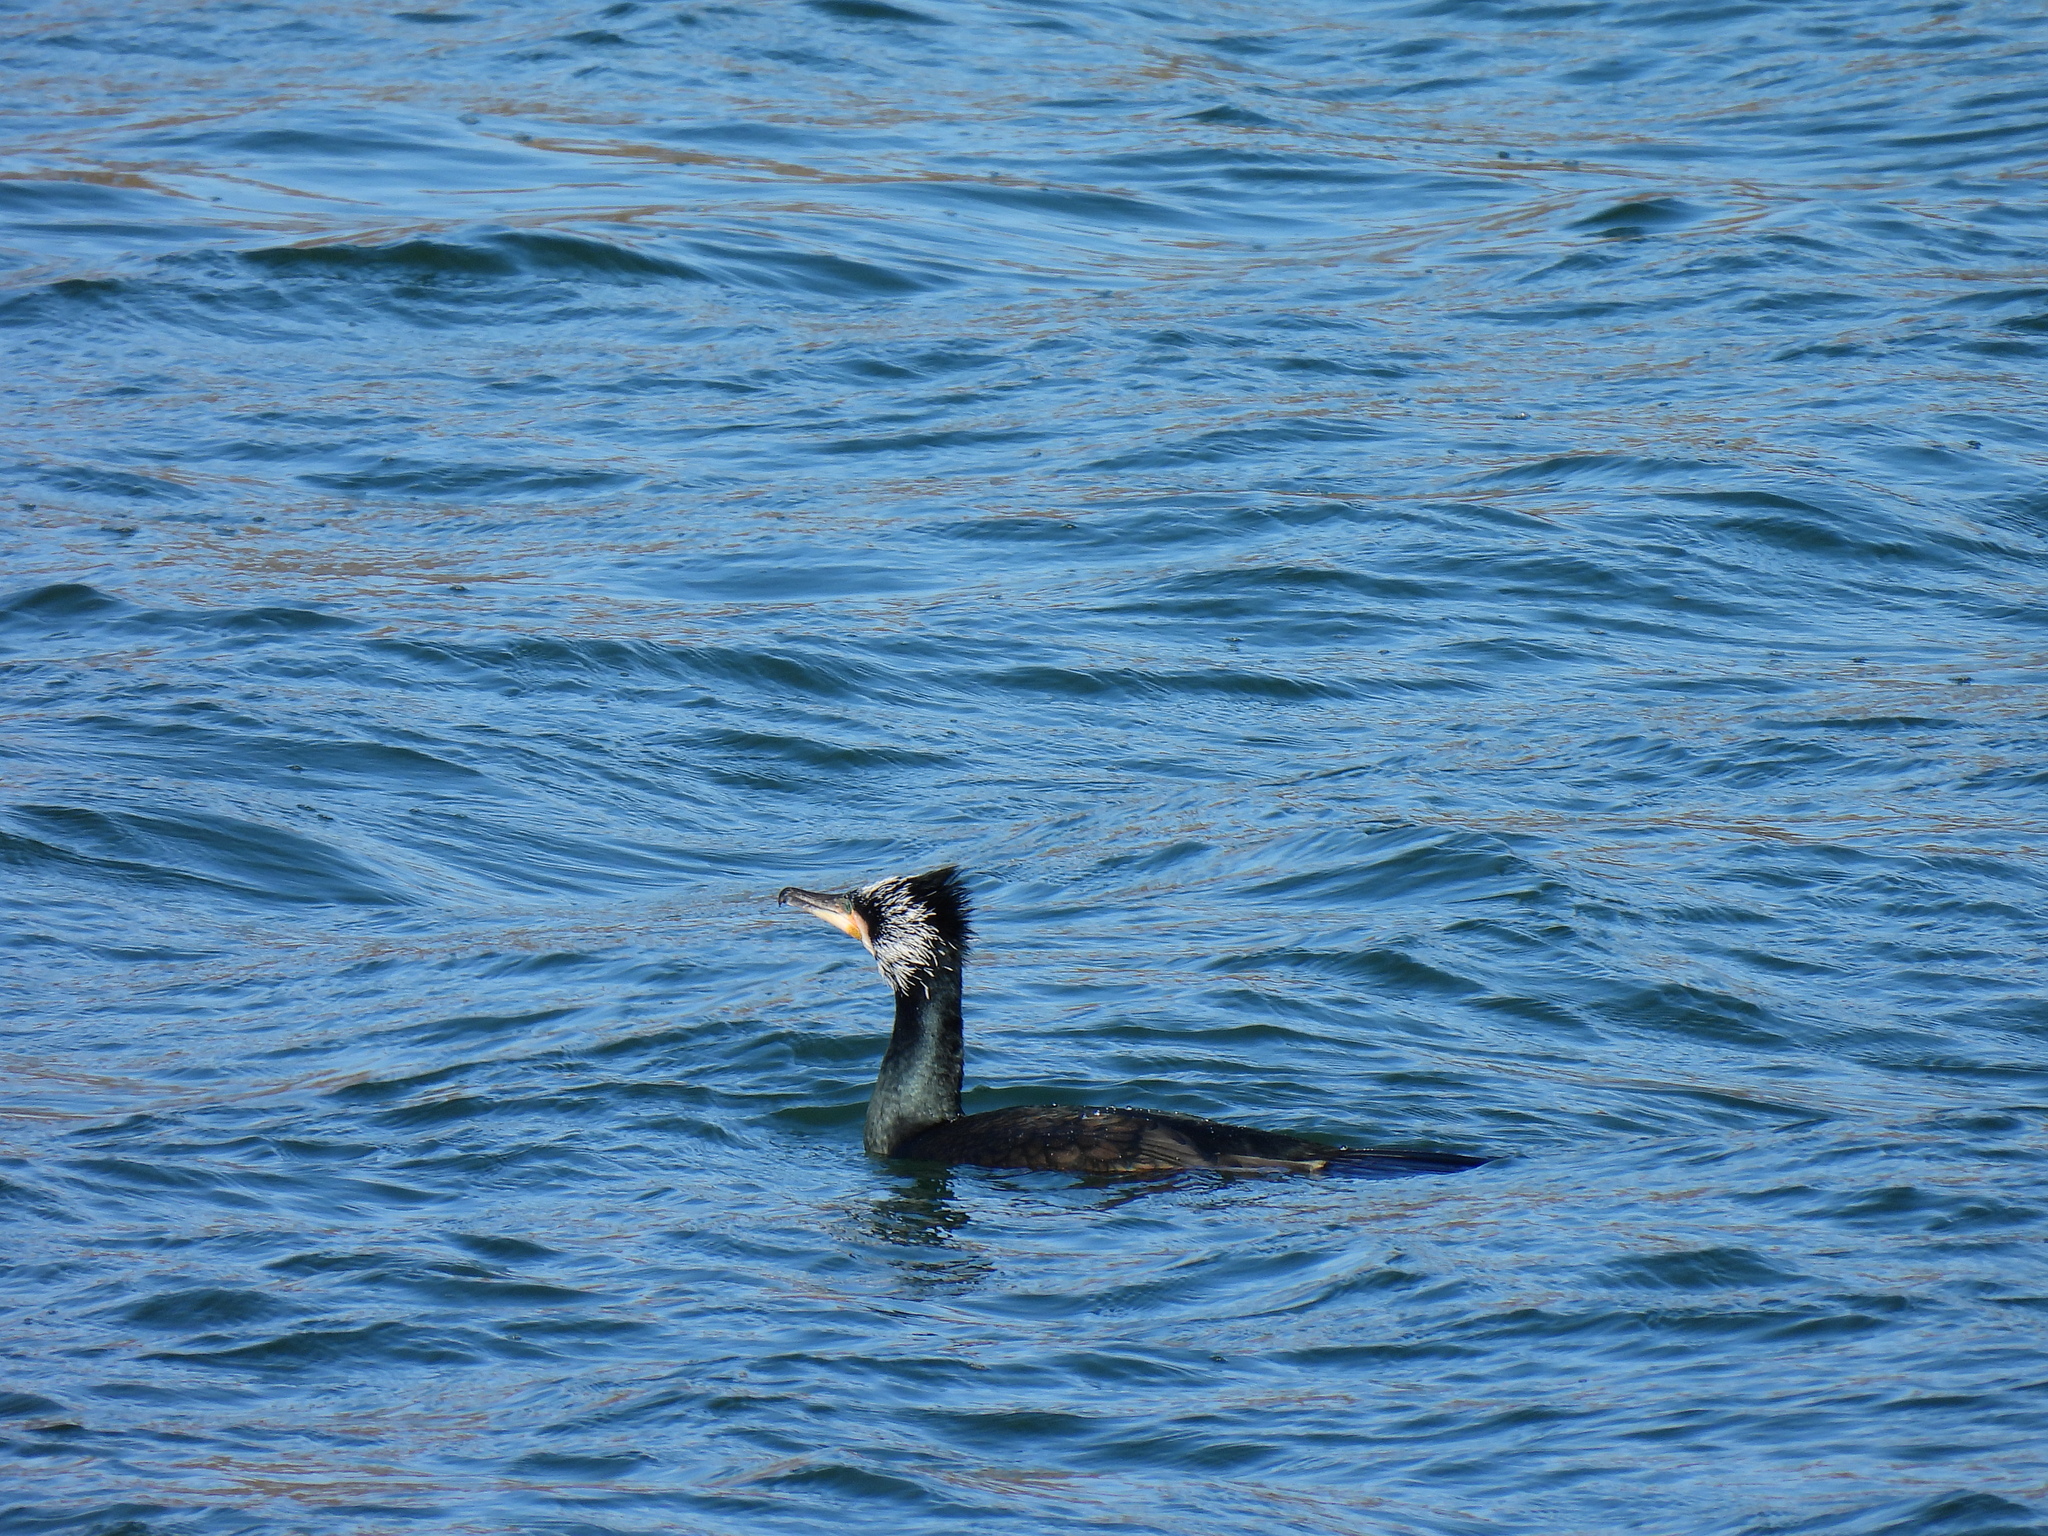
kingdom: Animalia
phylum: Chordata
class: Aves
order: Suliformes
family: Phalacrocoracidae
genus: Phalacrocorax
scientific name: Phalacrocorax carbo
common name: Great cormorant
